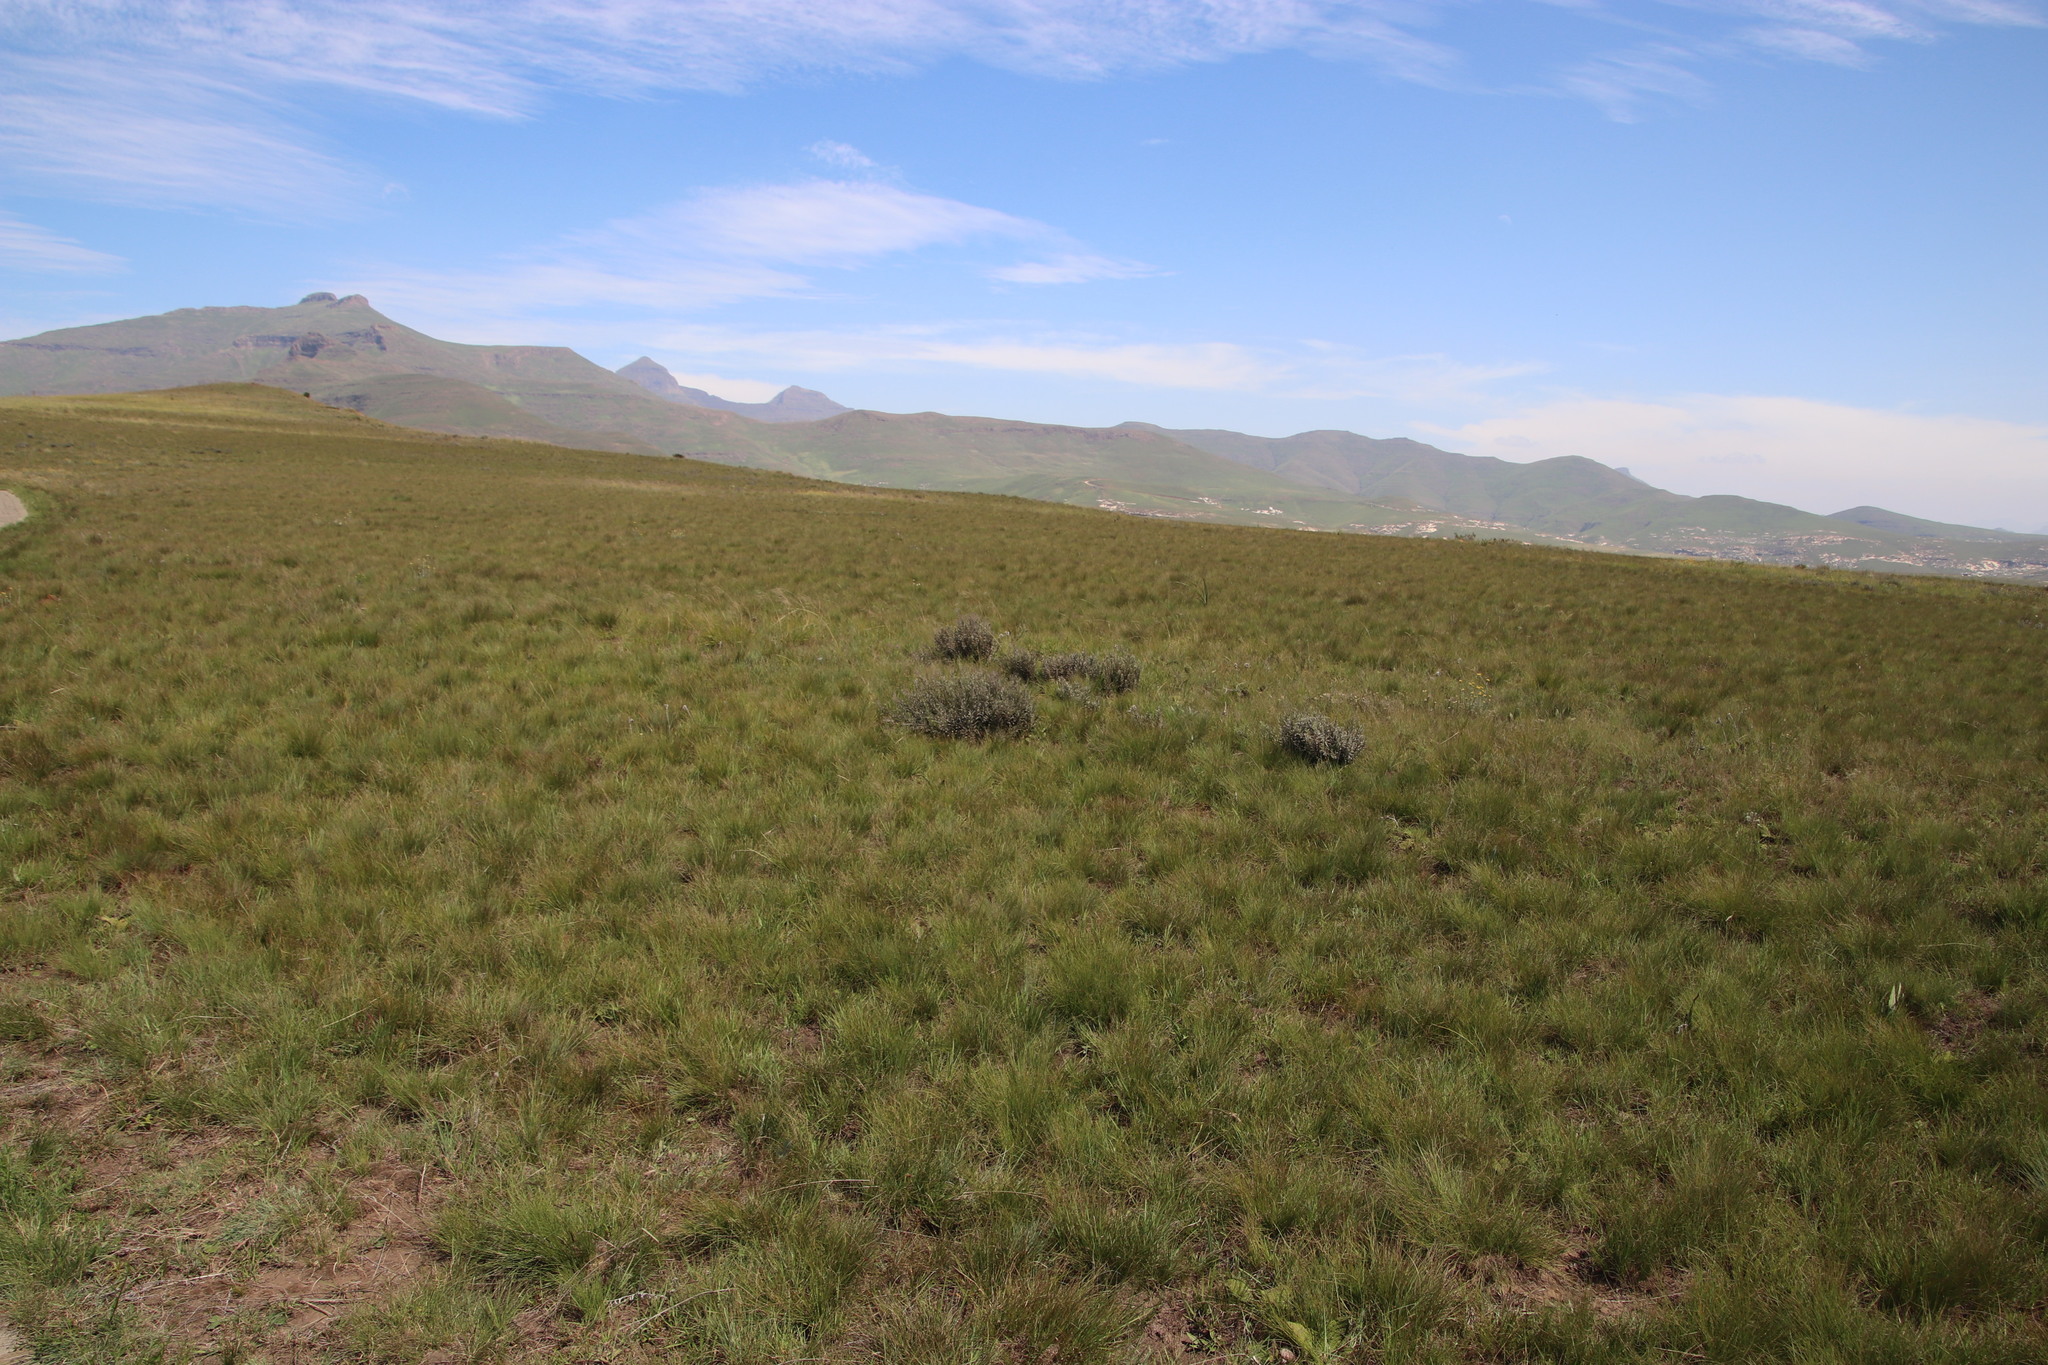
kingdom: Plantae
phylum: Tracheophyta
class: Magnoliopsida
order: Fabales
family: Fabaceae
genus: Lotononis
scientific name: Lotononis lotononoides
